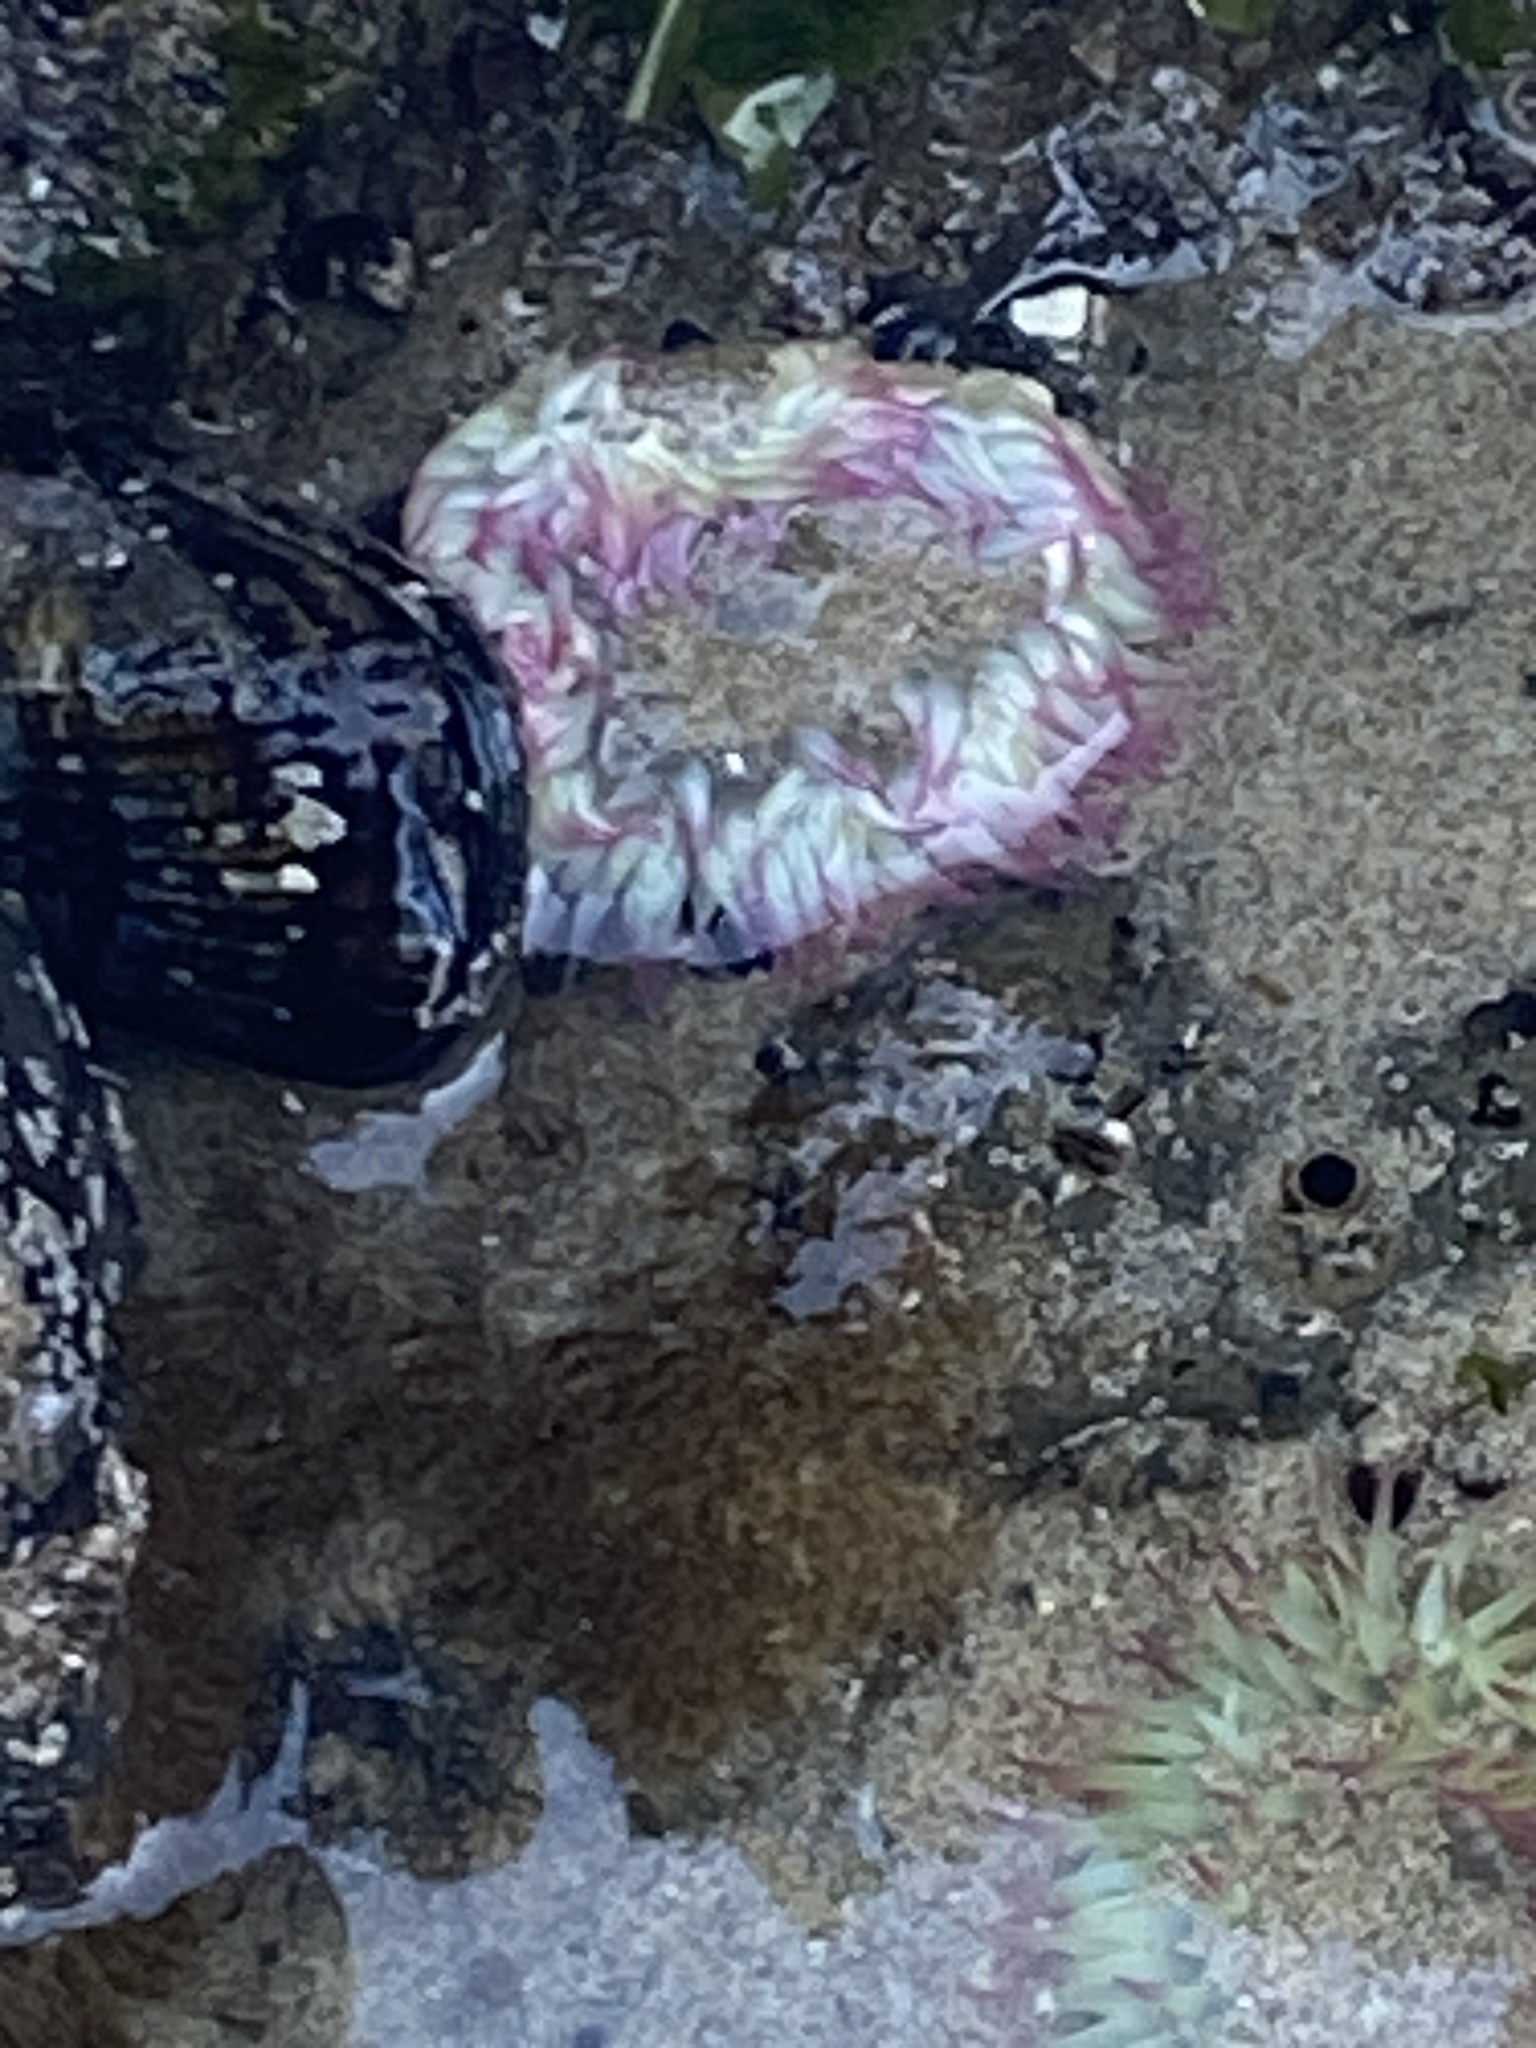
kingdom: Animalia
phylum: Cnidaria
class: Anthozoa
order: Actiniaria
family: Actiniidae
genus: Anthopleura
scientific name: Anthopleura elegantissima
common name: Clonal anemone
